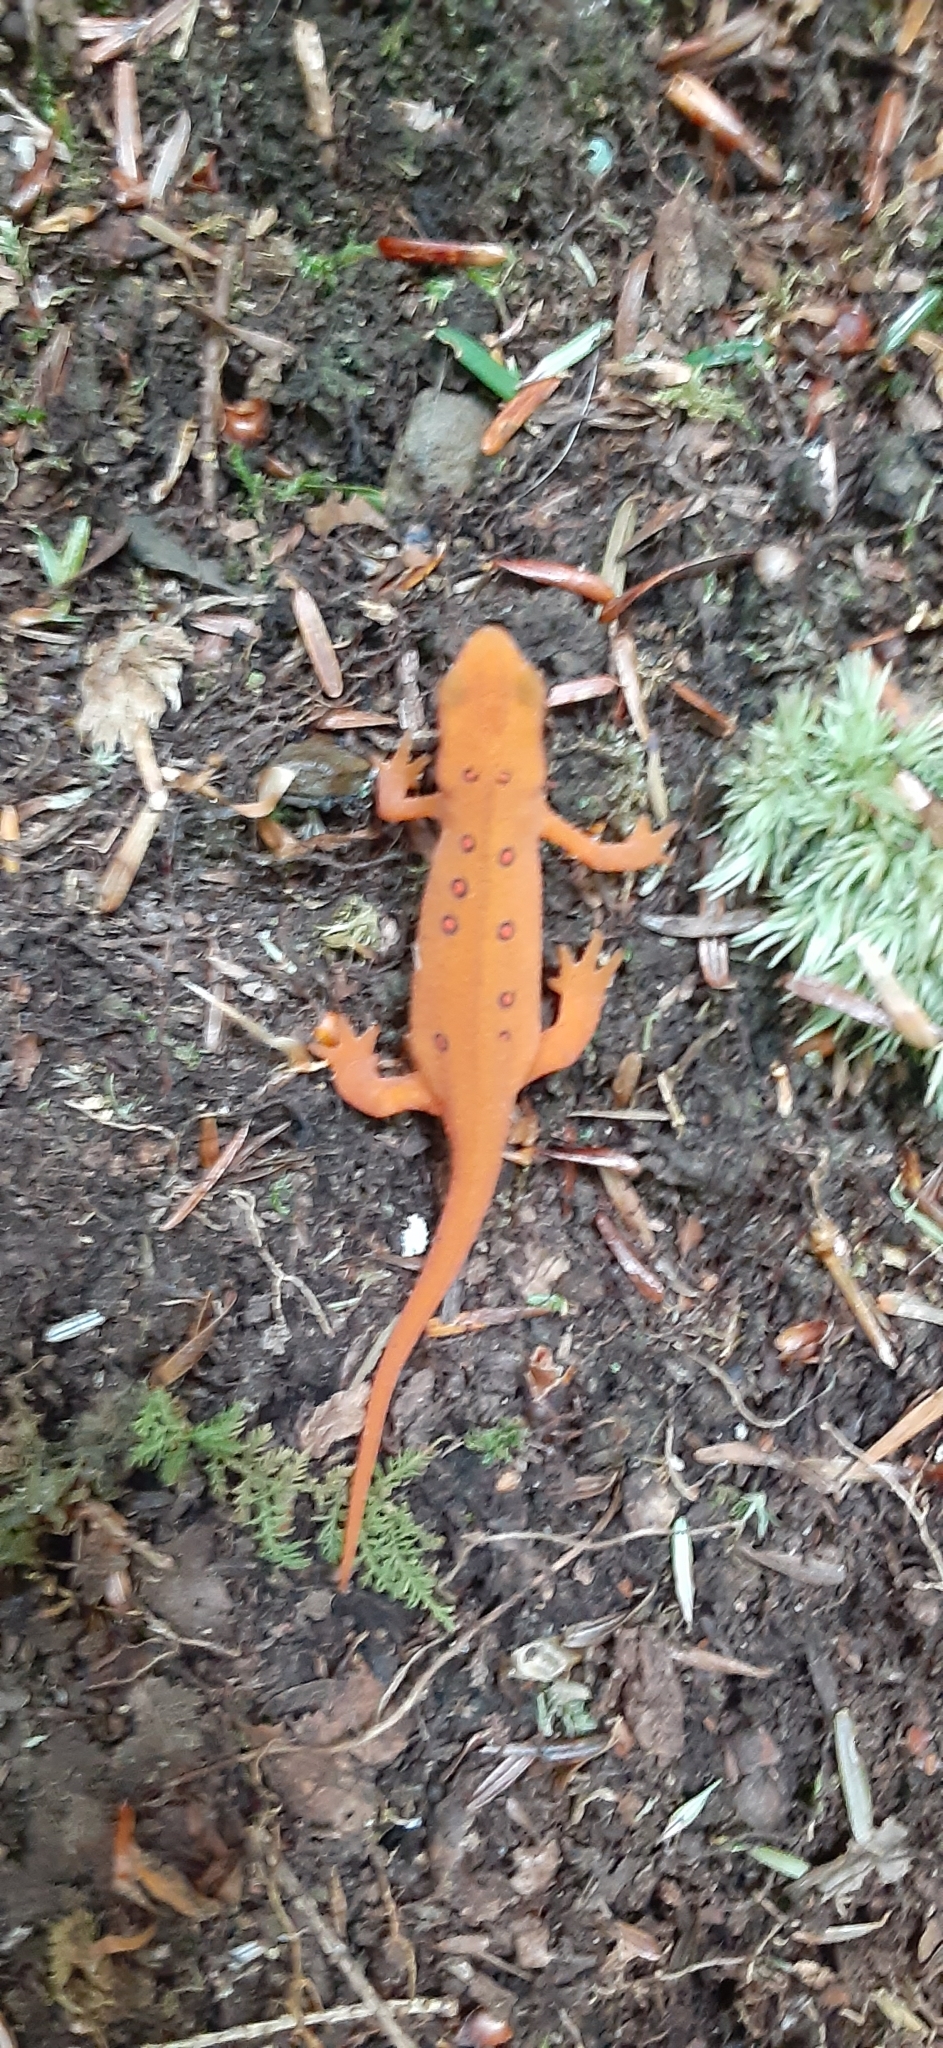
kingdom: Animalia
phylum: Chordata
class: Amphibia
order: Caudata
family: Salamandridae
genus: Notophthalmus
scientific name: Notophthalmus viridescens
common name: Eastern newt
